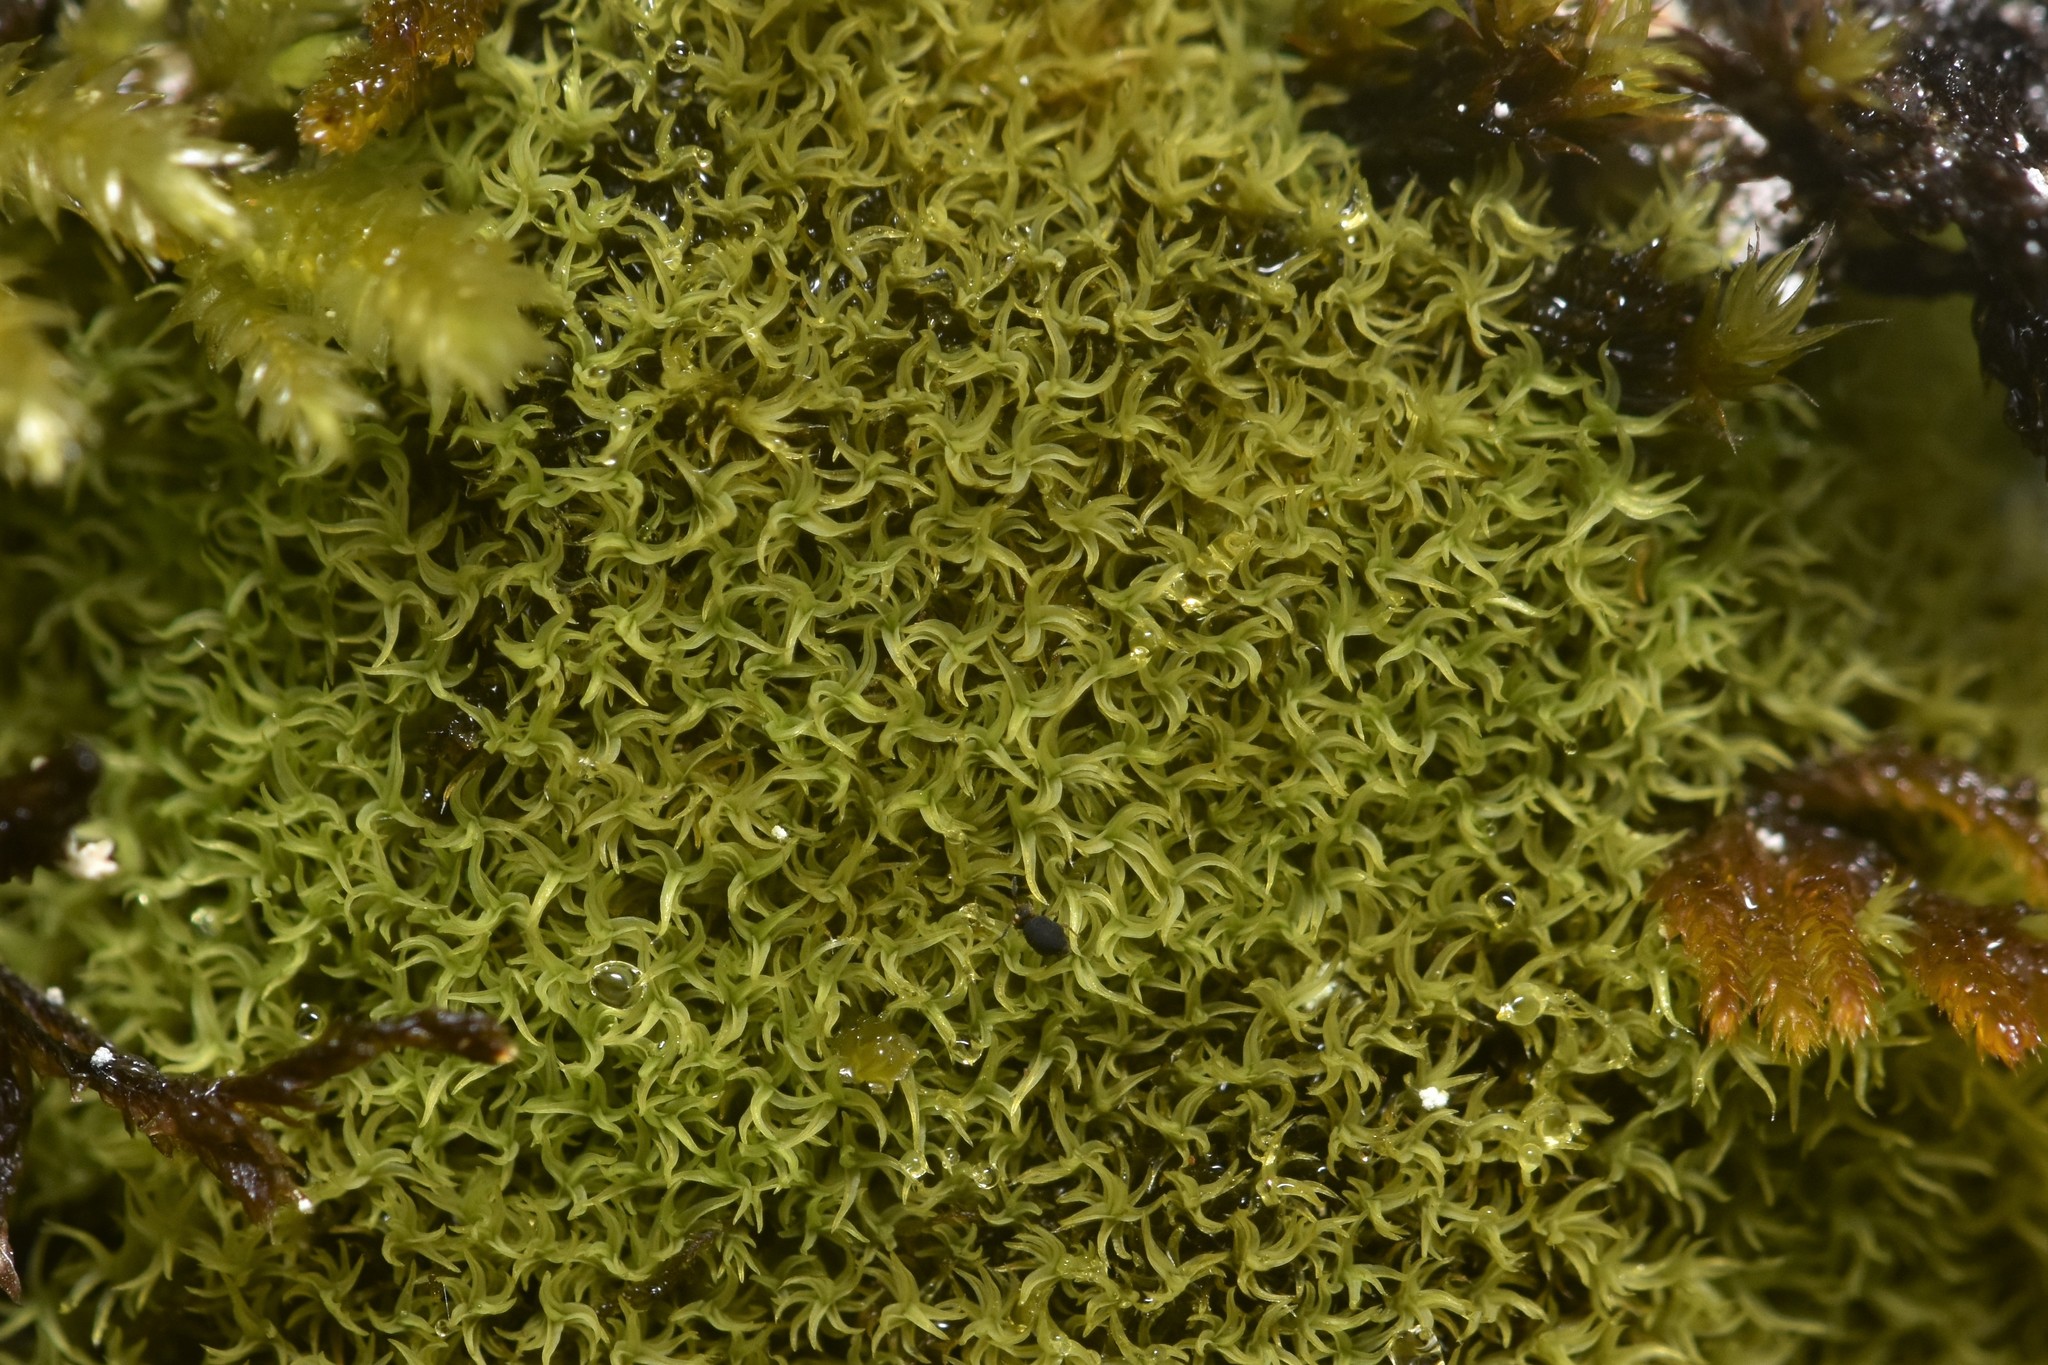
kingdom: Plantae
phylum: Bryophyta
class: Bryopsida
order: Grimmiales
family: Grimmiaceae
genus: Grimmia
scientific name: Grimmia torquata
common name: Twisted grimmia
